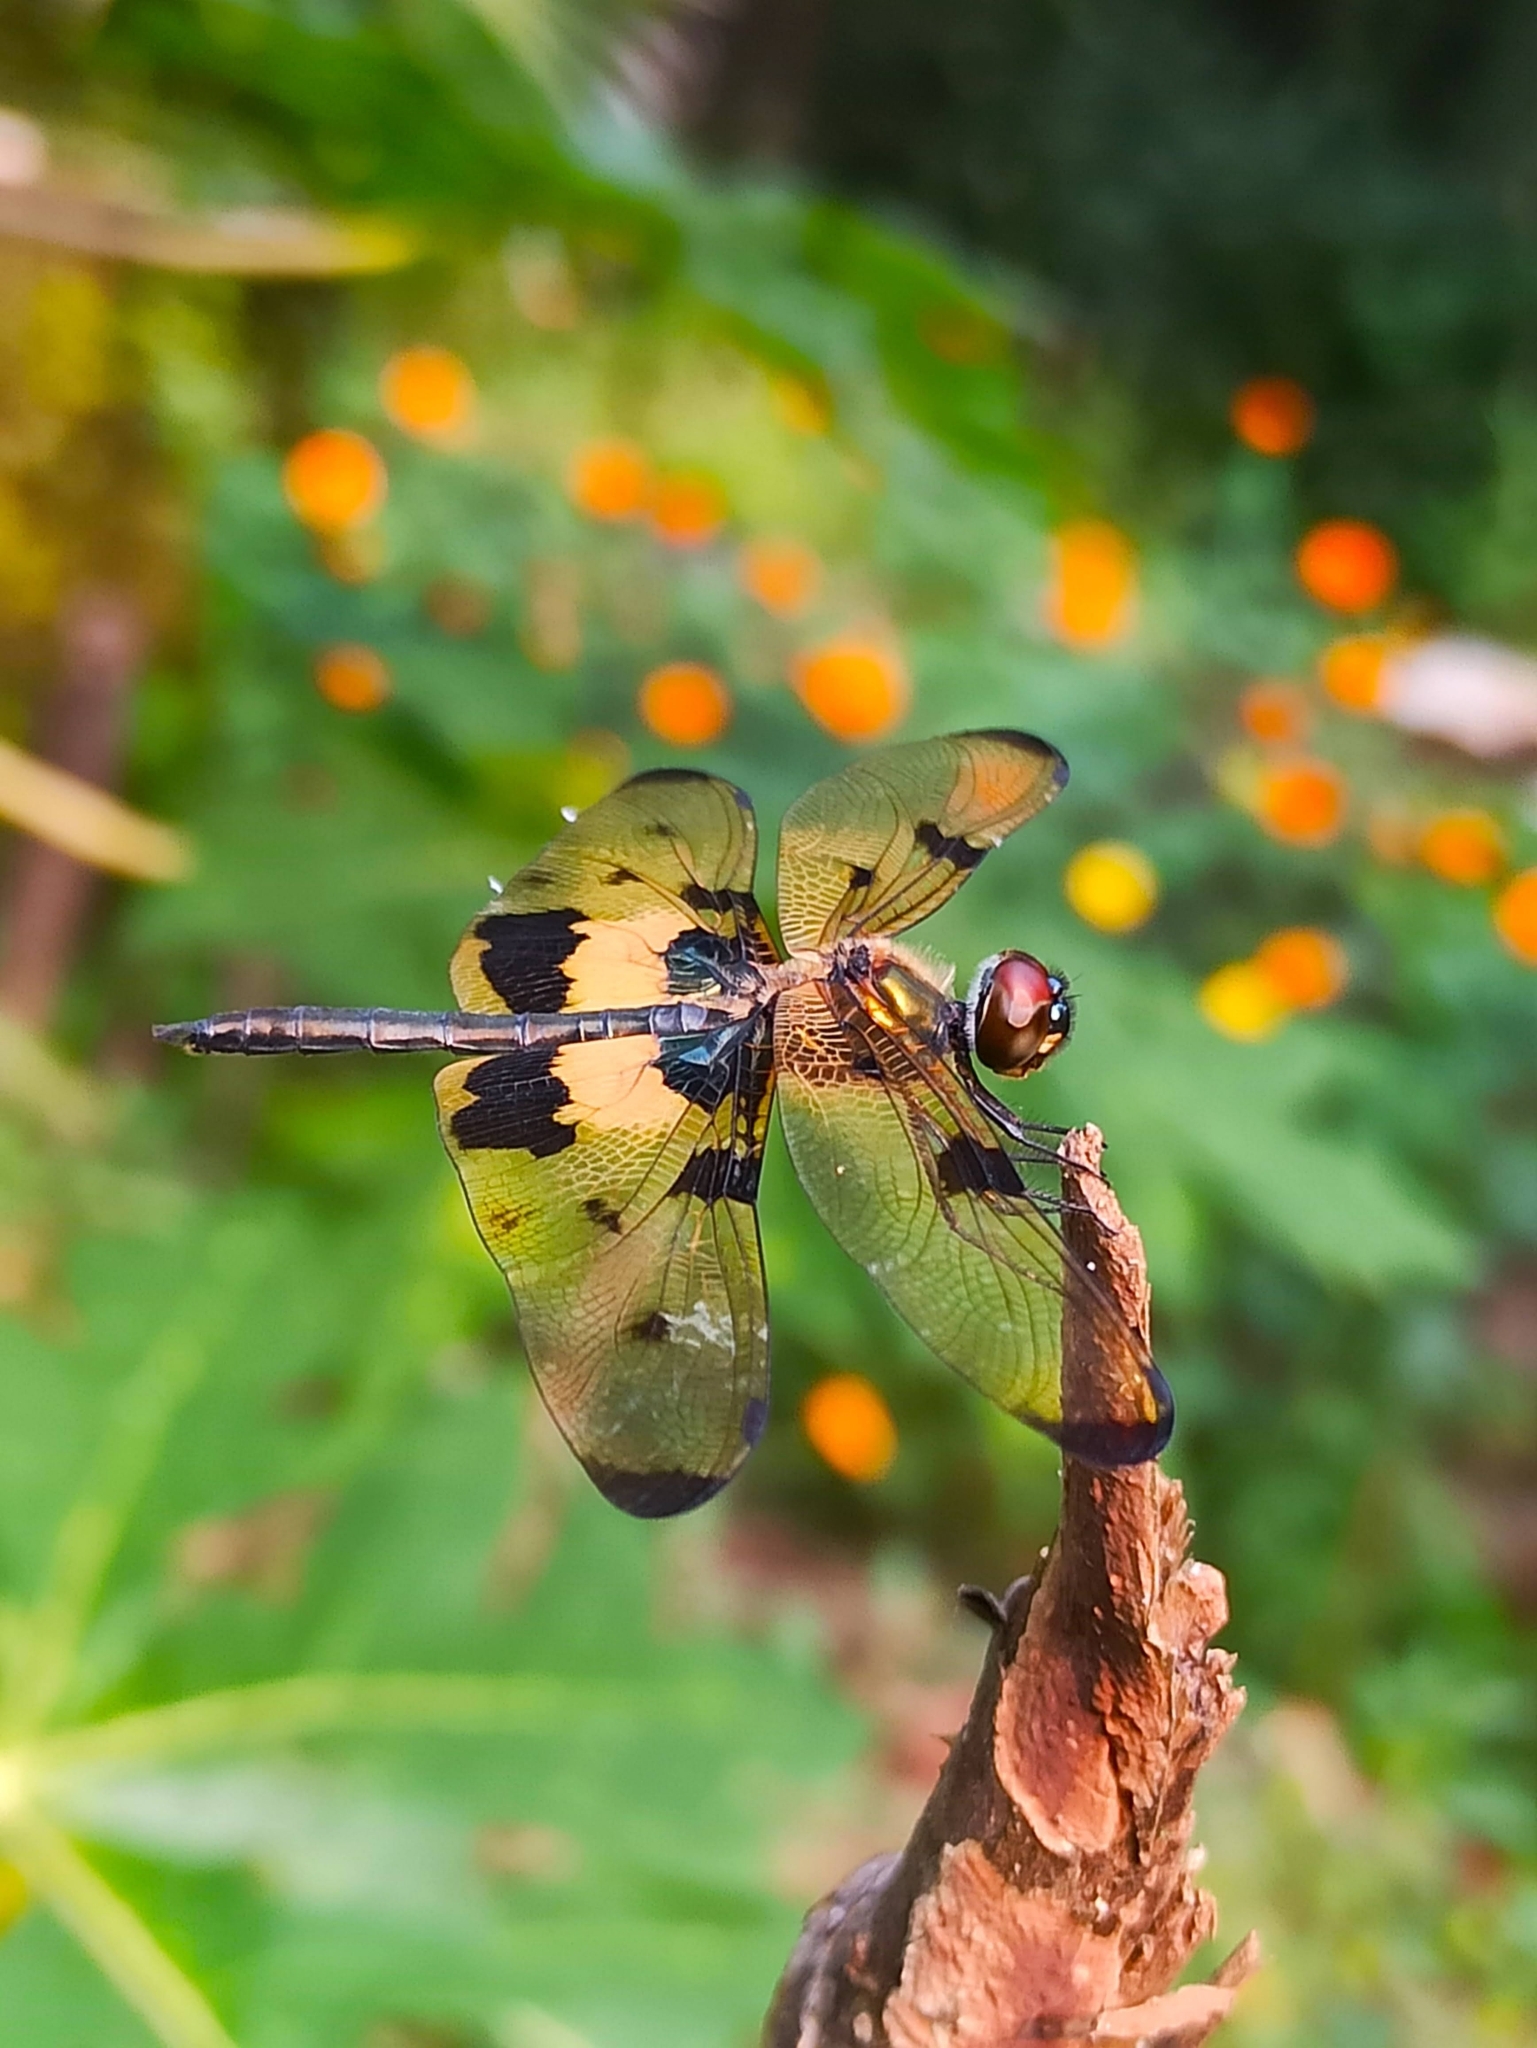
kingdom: Animalia
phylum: Arthropoda
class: Insecta
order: Odonata
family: Libellulidae
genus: Rhyothemis
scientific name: Rhyothemis variegata
